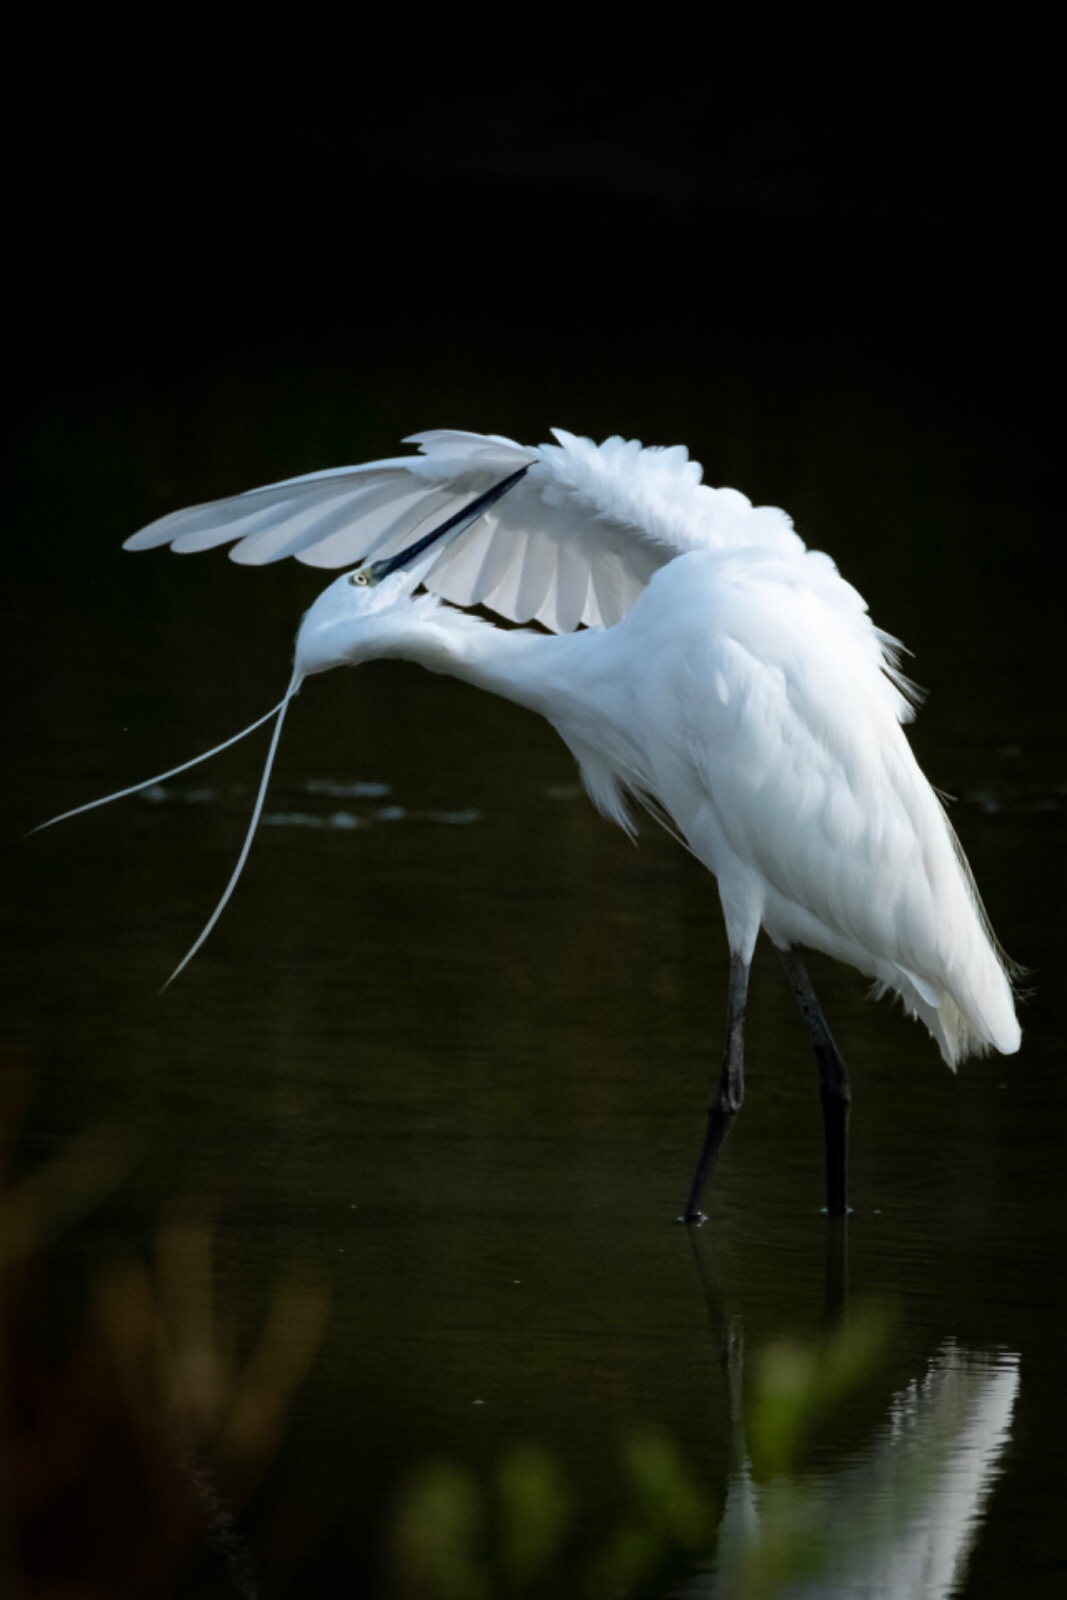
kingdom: Animalia
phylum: Chordata
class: Aves
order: Pelecaniformes
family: Ardeidae
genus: Egretta
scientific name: Egretta garzetta
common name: Little egret
